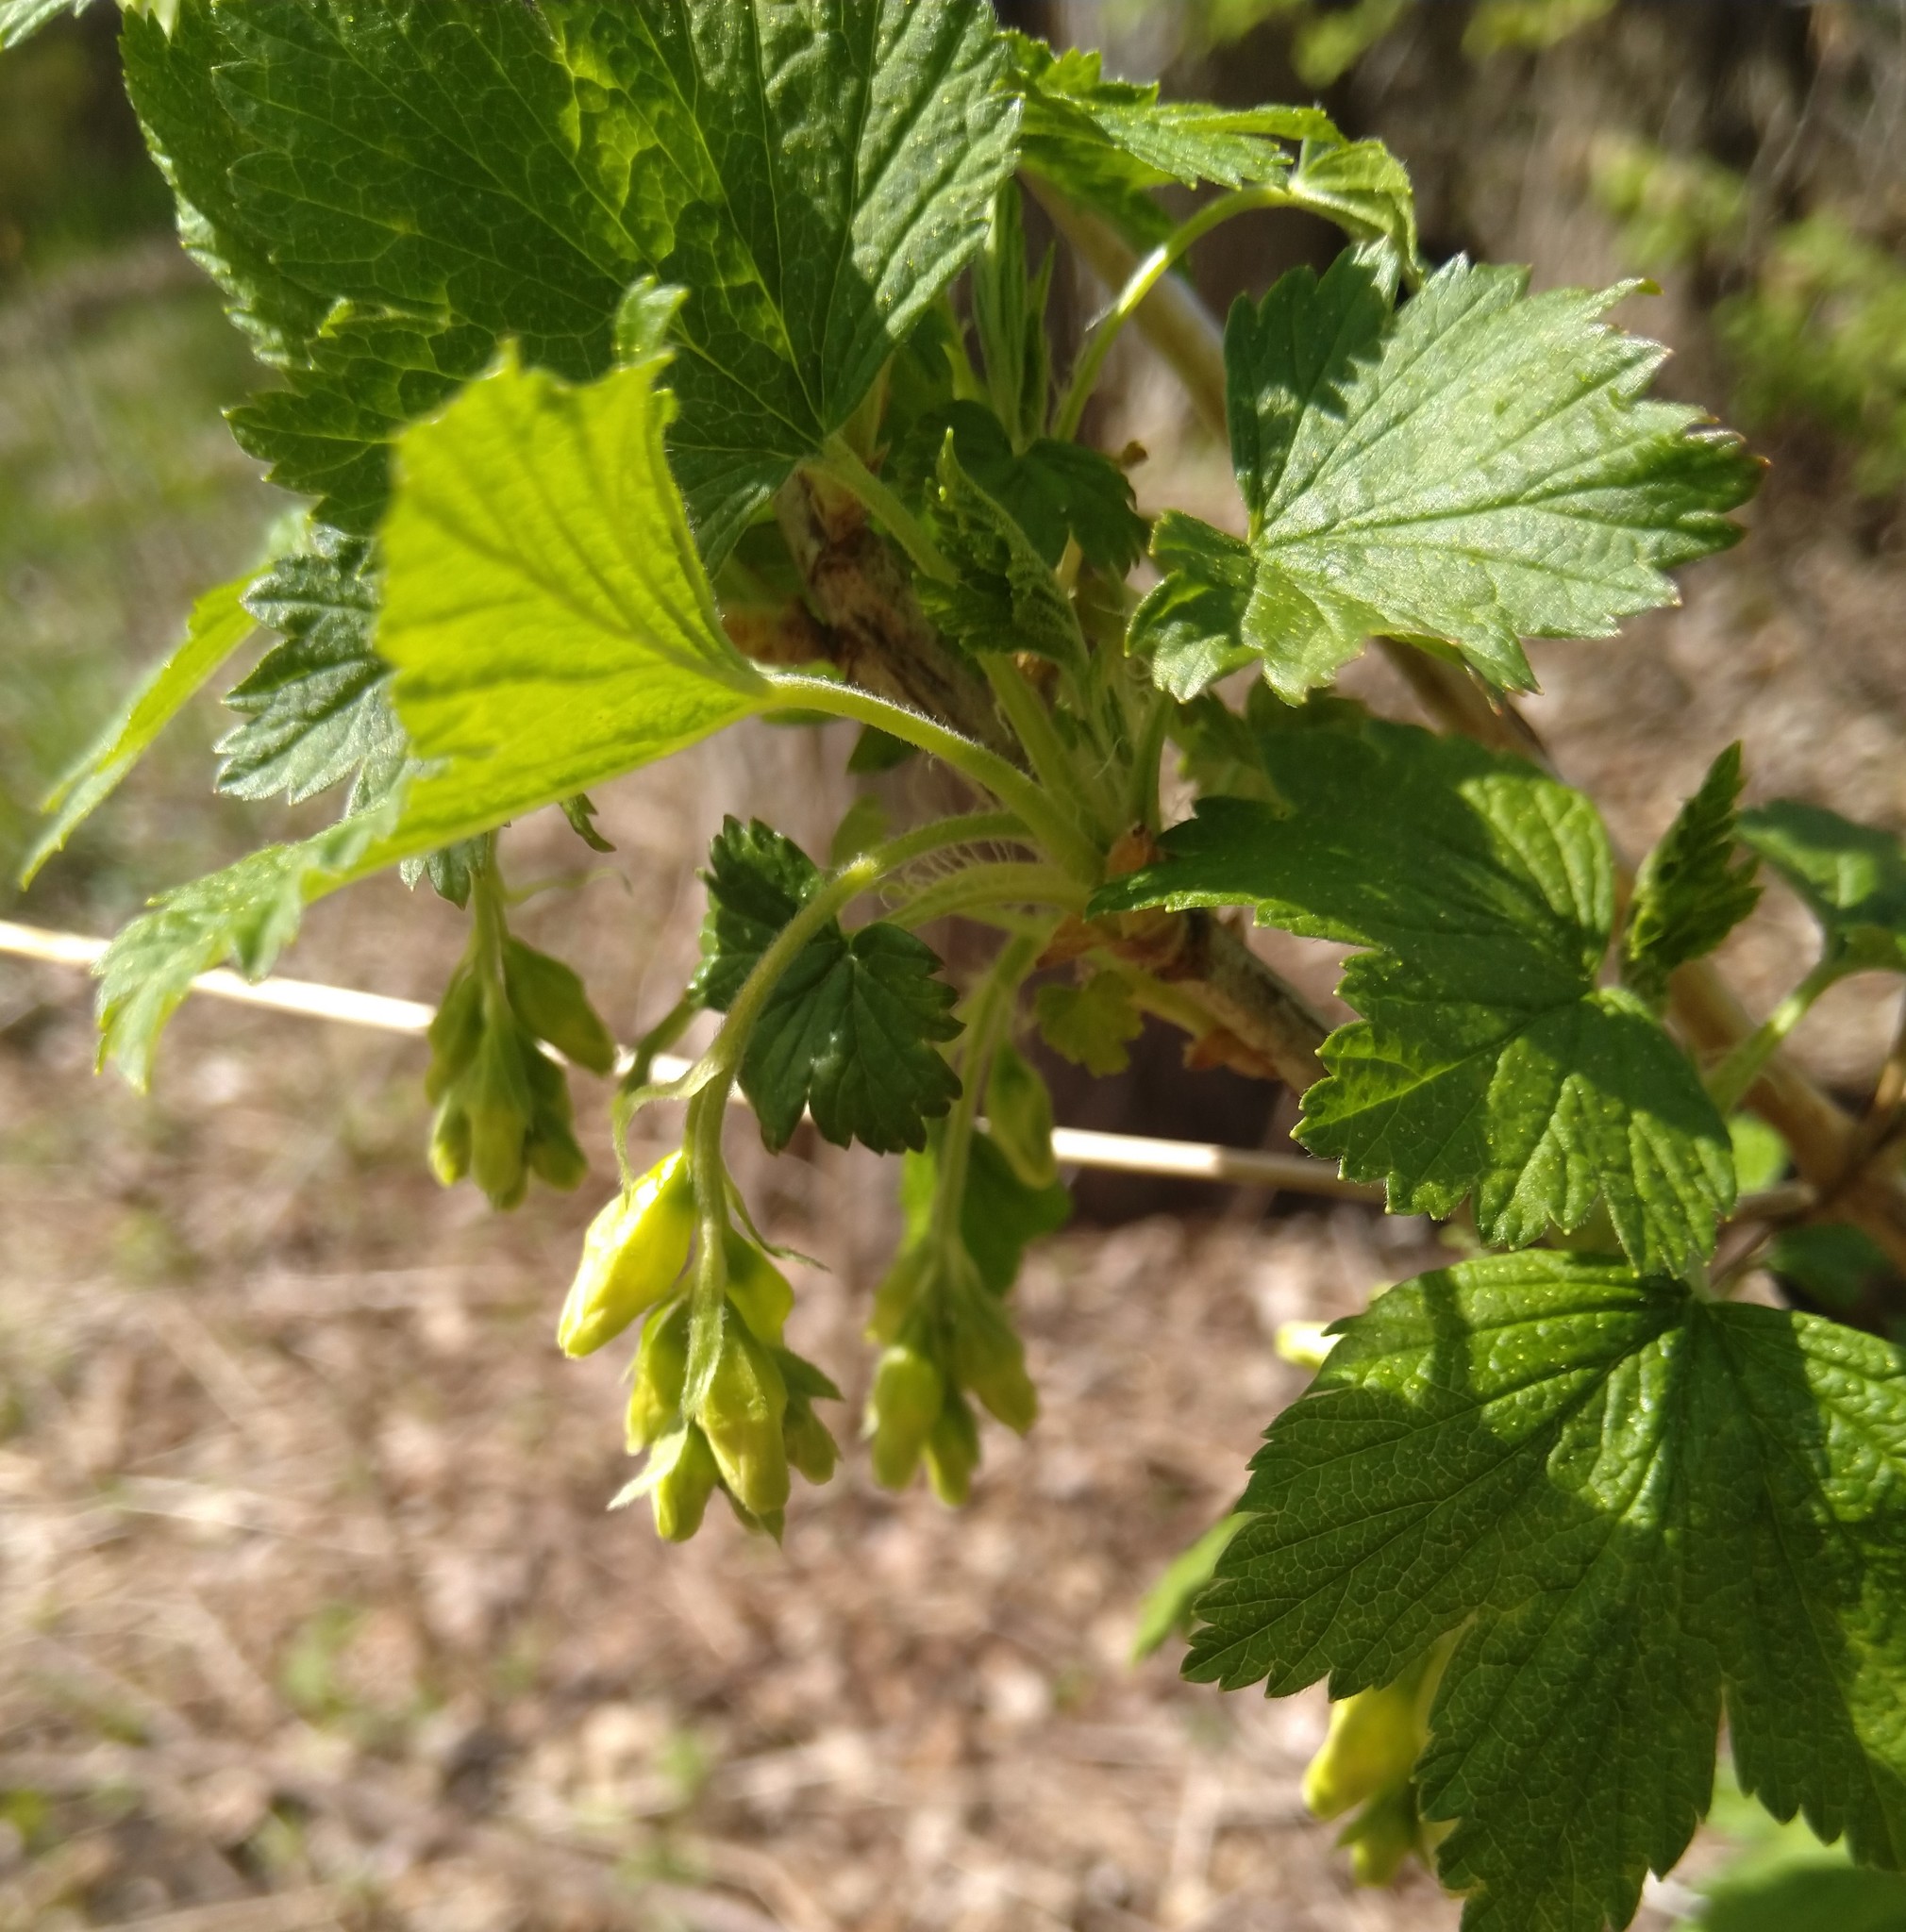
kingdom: Plantae
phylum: Tracheophyta
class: Magnoliopsida
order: Saxifragales
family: Grossulariaceae
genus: Ribes
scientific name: Ribes americanum
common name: American black currant
